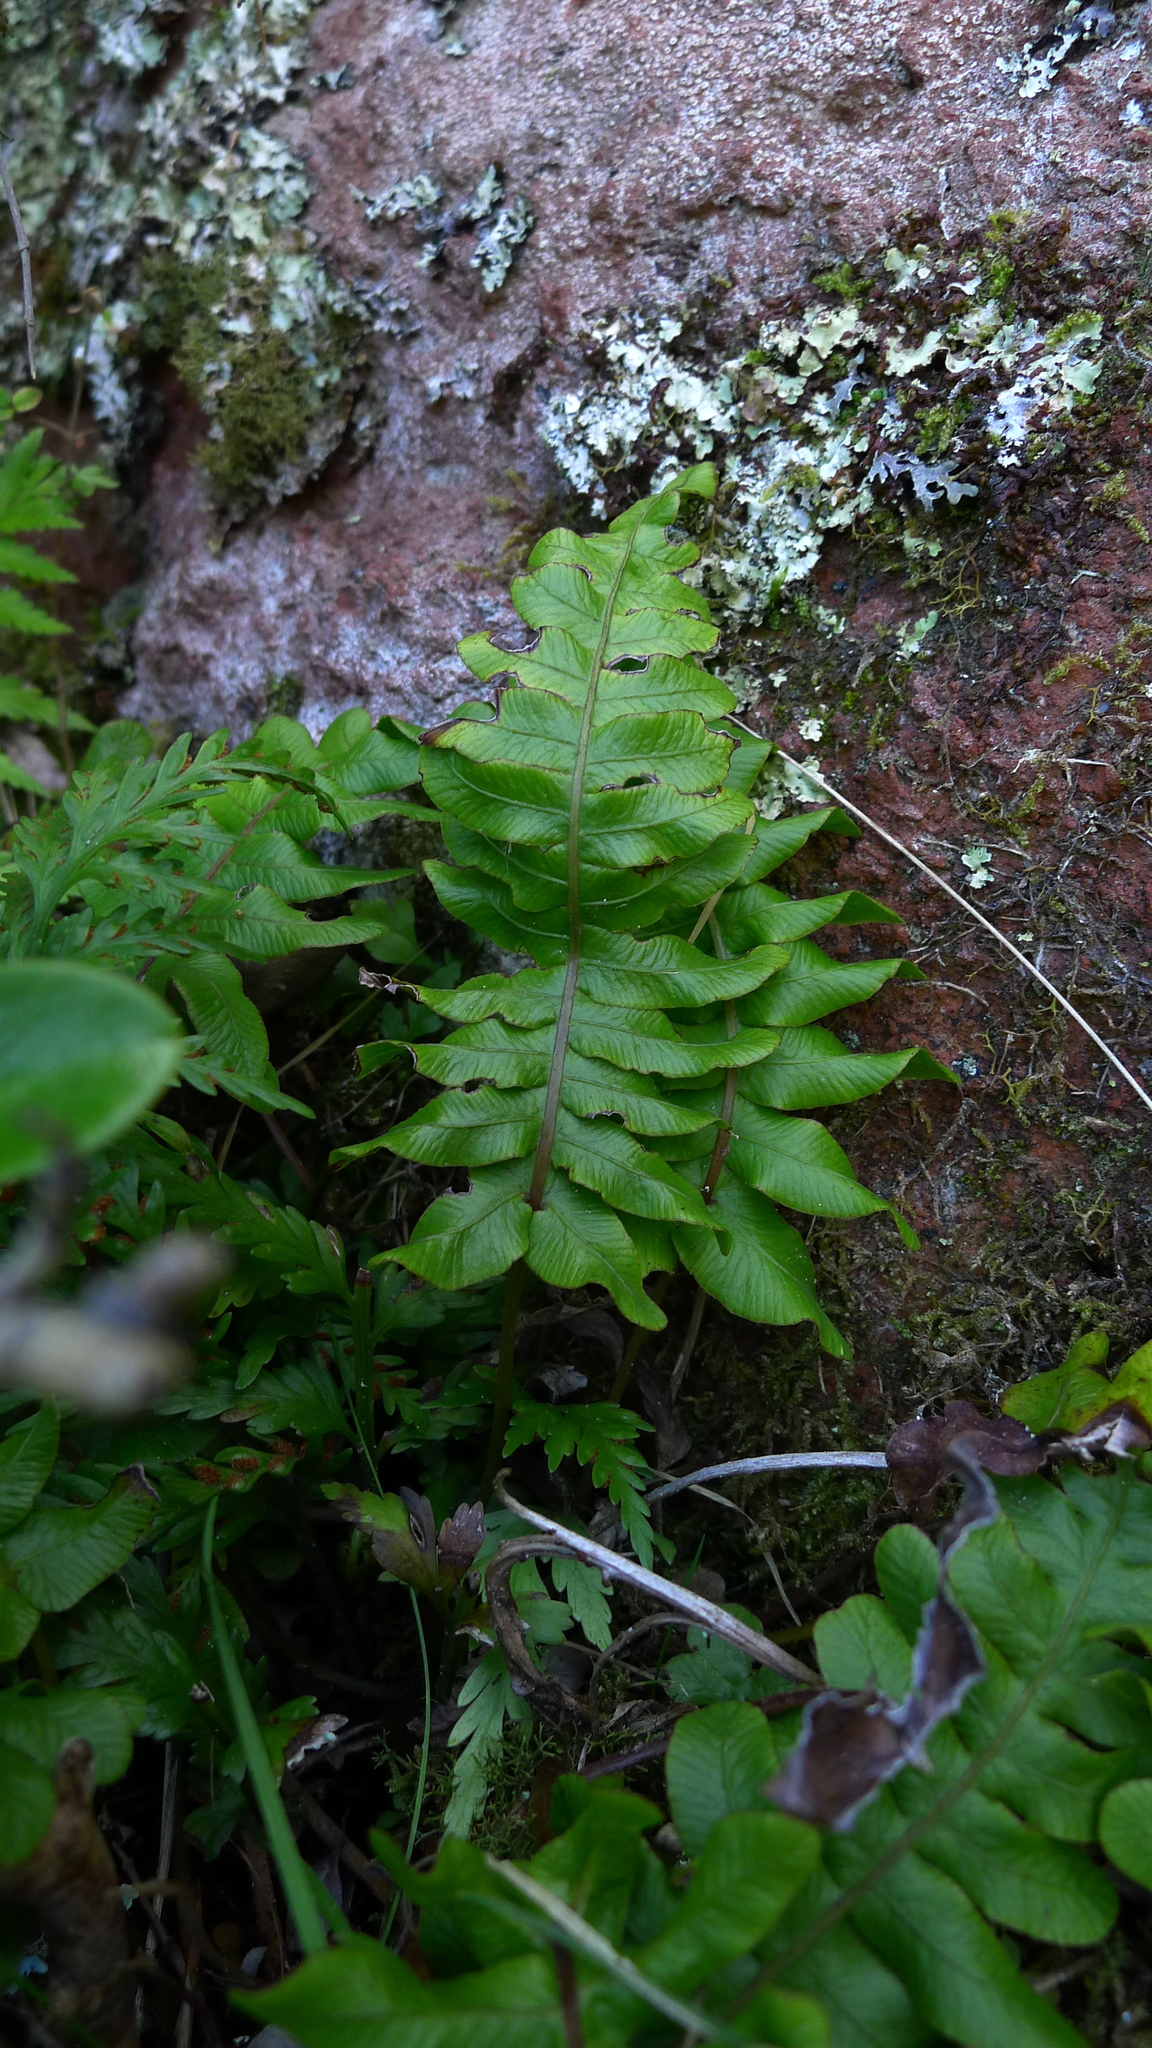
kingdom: Plantae
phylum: Tracheophyta
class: Polypodiopsida
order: Polypodiales
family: Blechnaceae
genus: Cranfillia
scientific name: Cranfillia deltoides
